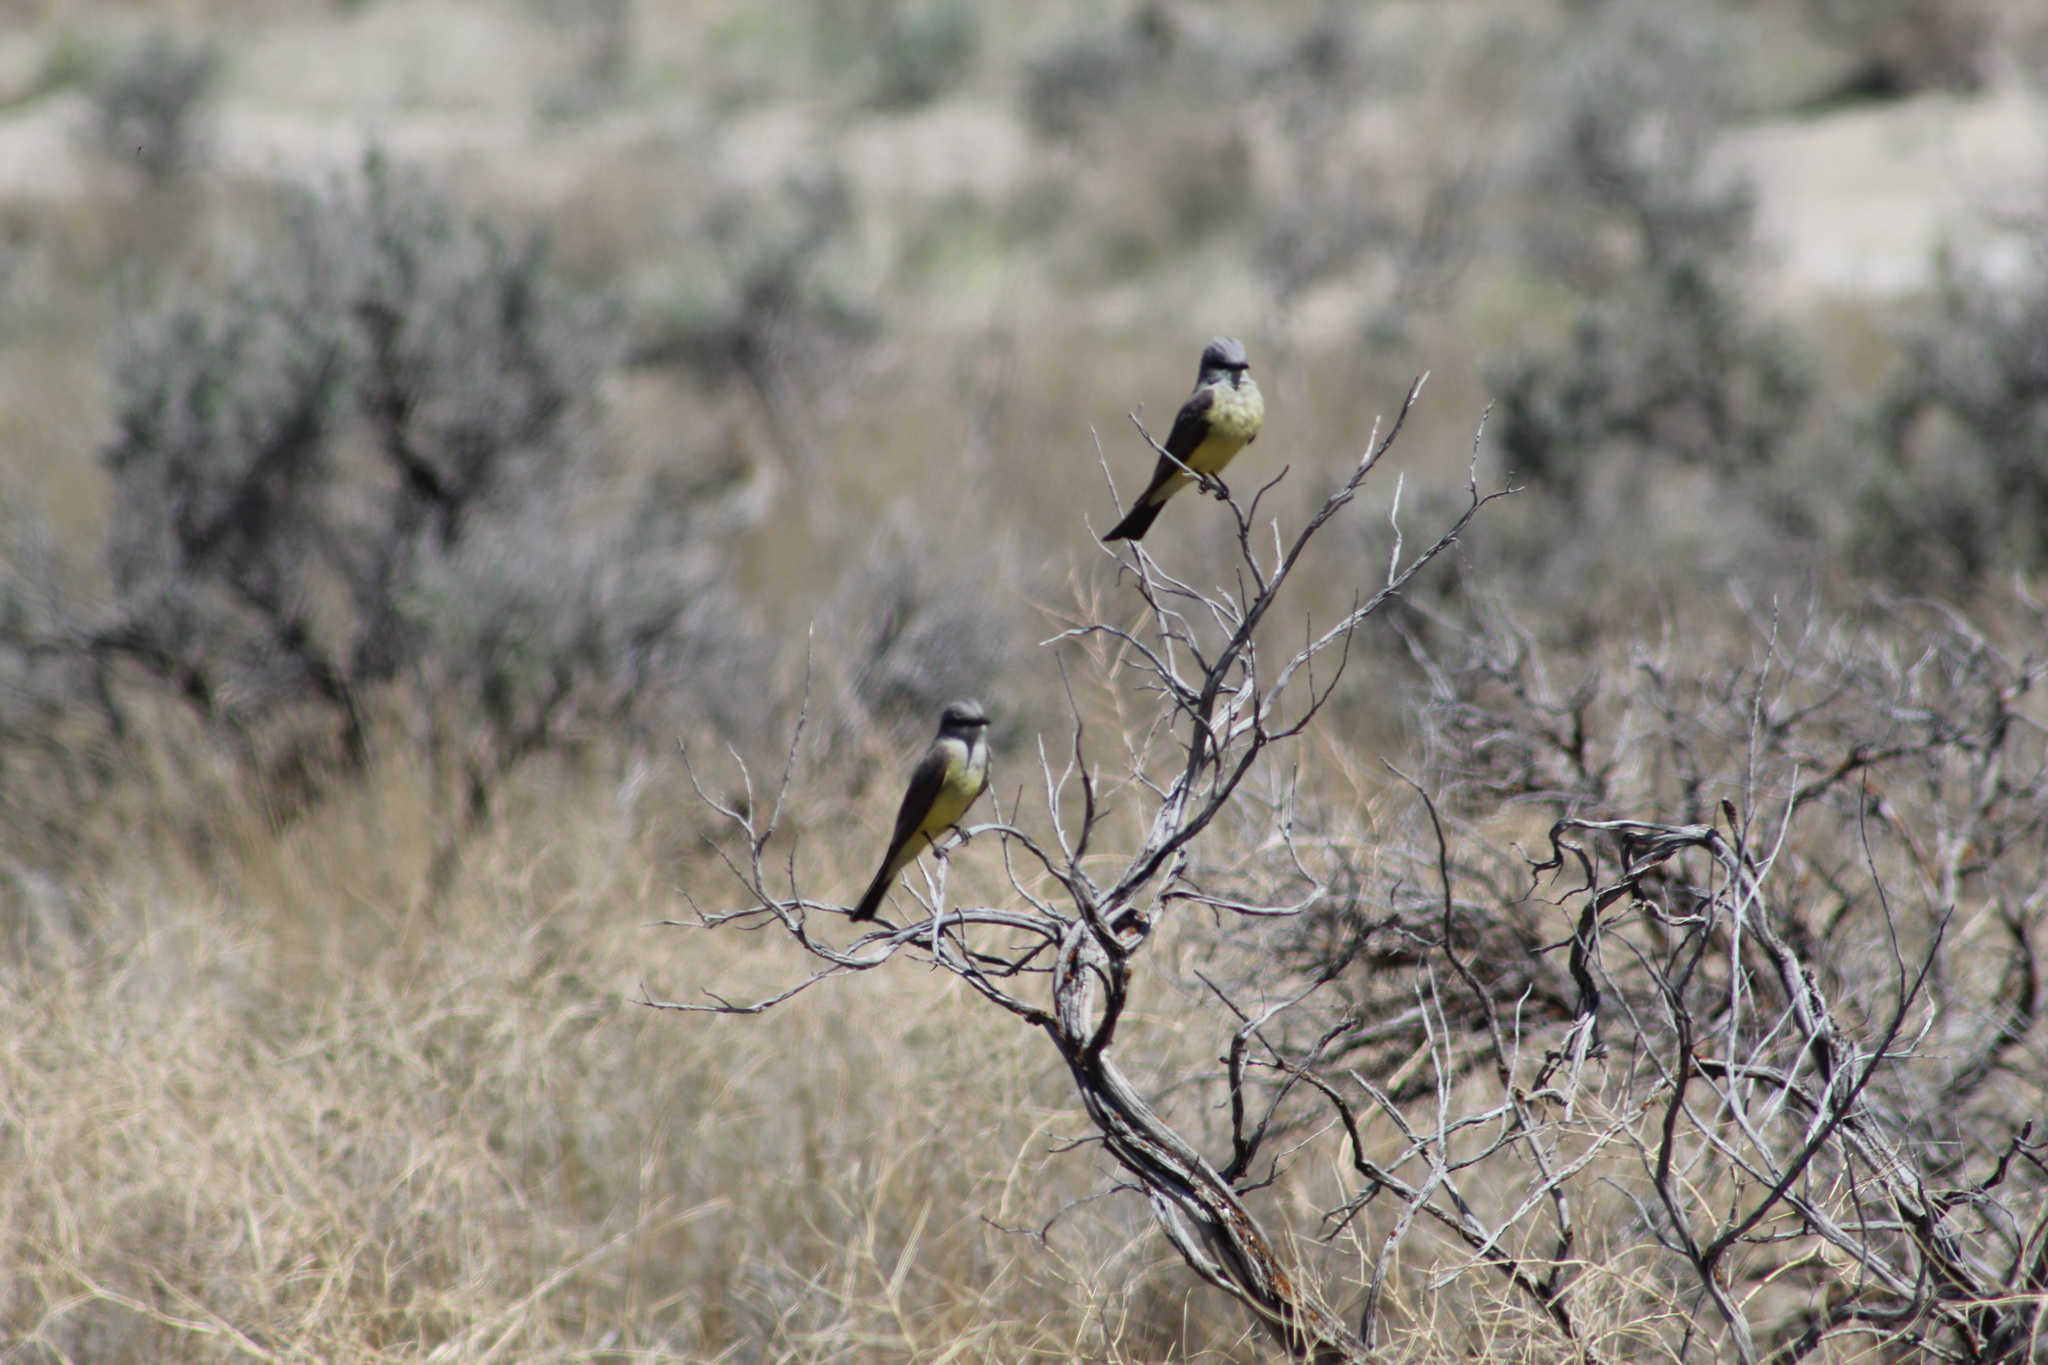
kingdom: Animalia
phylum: Chordata
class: Aves
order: Passeriformes
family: Tyrannidae
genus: Tyrannus
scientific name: Tyrannus verticalis
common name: Western kingbird
